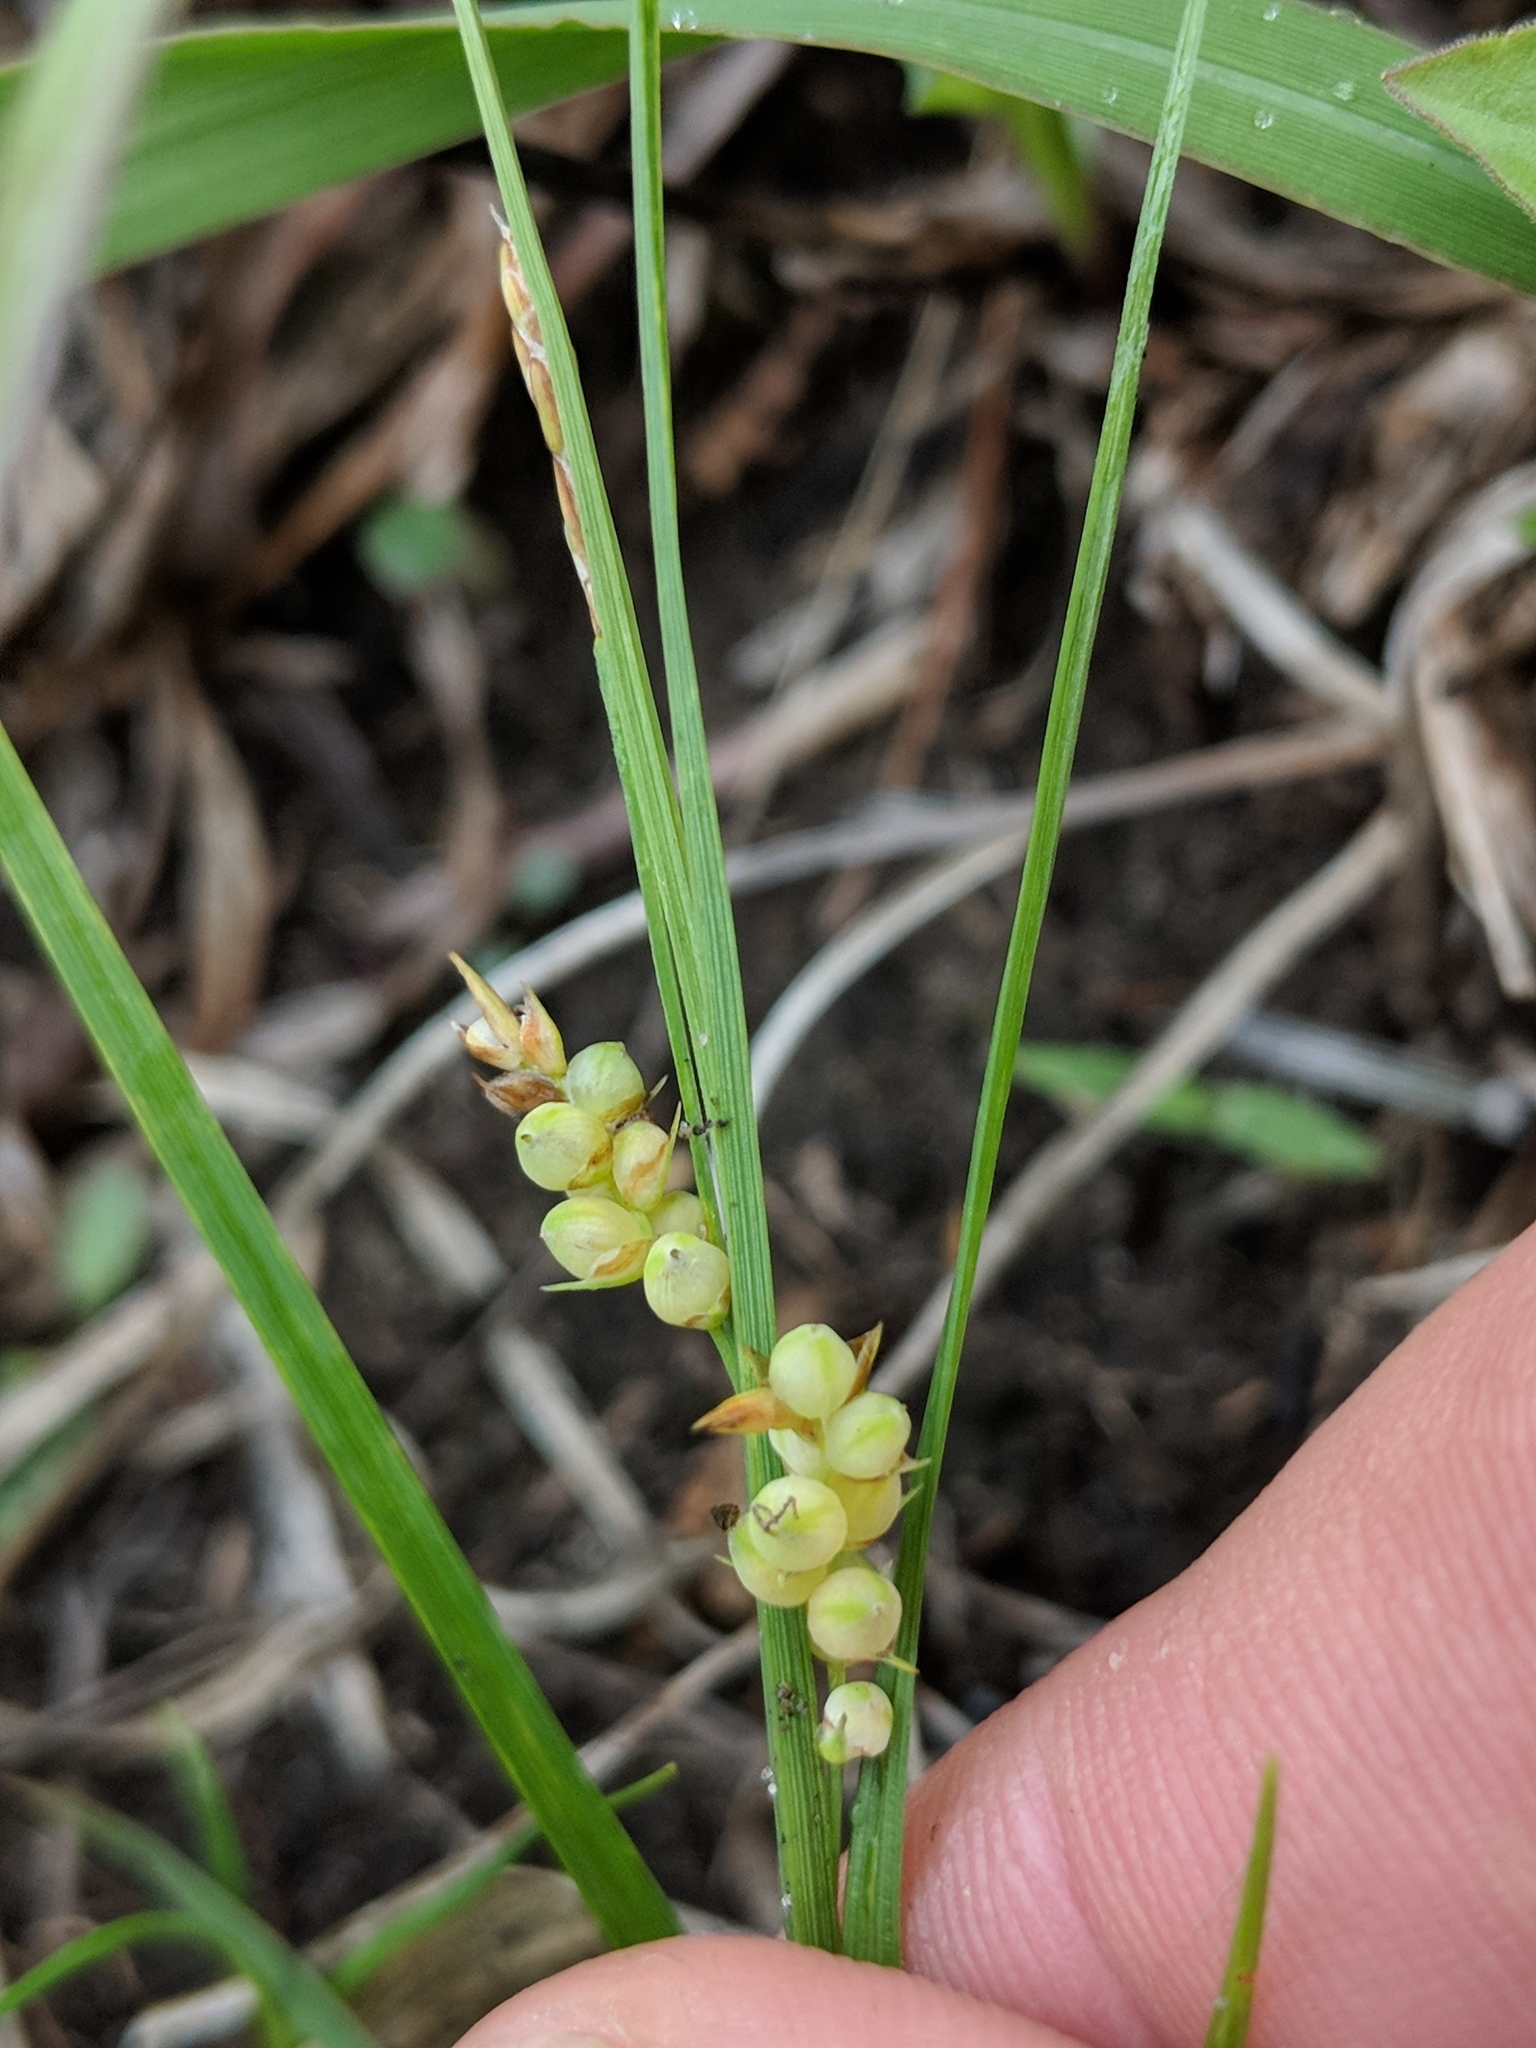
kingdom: Plantae
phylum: Tracheophyta
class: Liliopsida
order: Poales
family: Cyperaceae
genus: Carex
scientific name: Carex aurea
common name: Golden sedge
